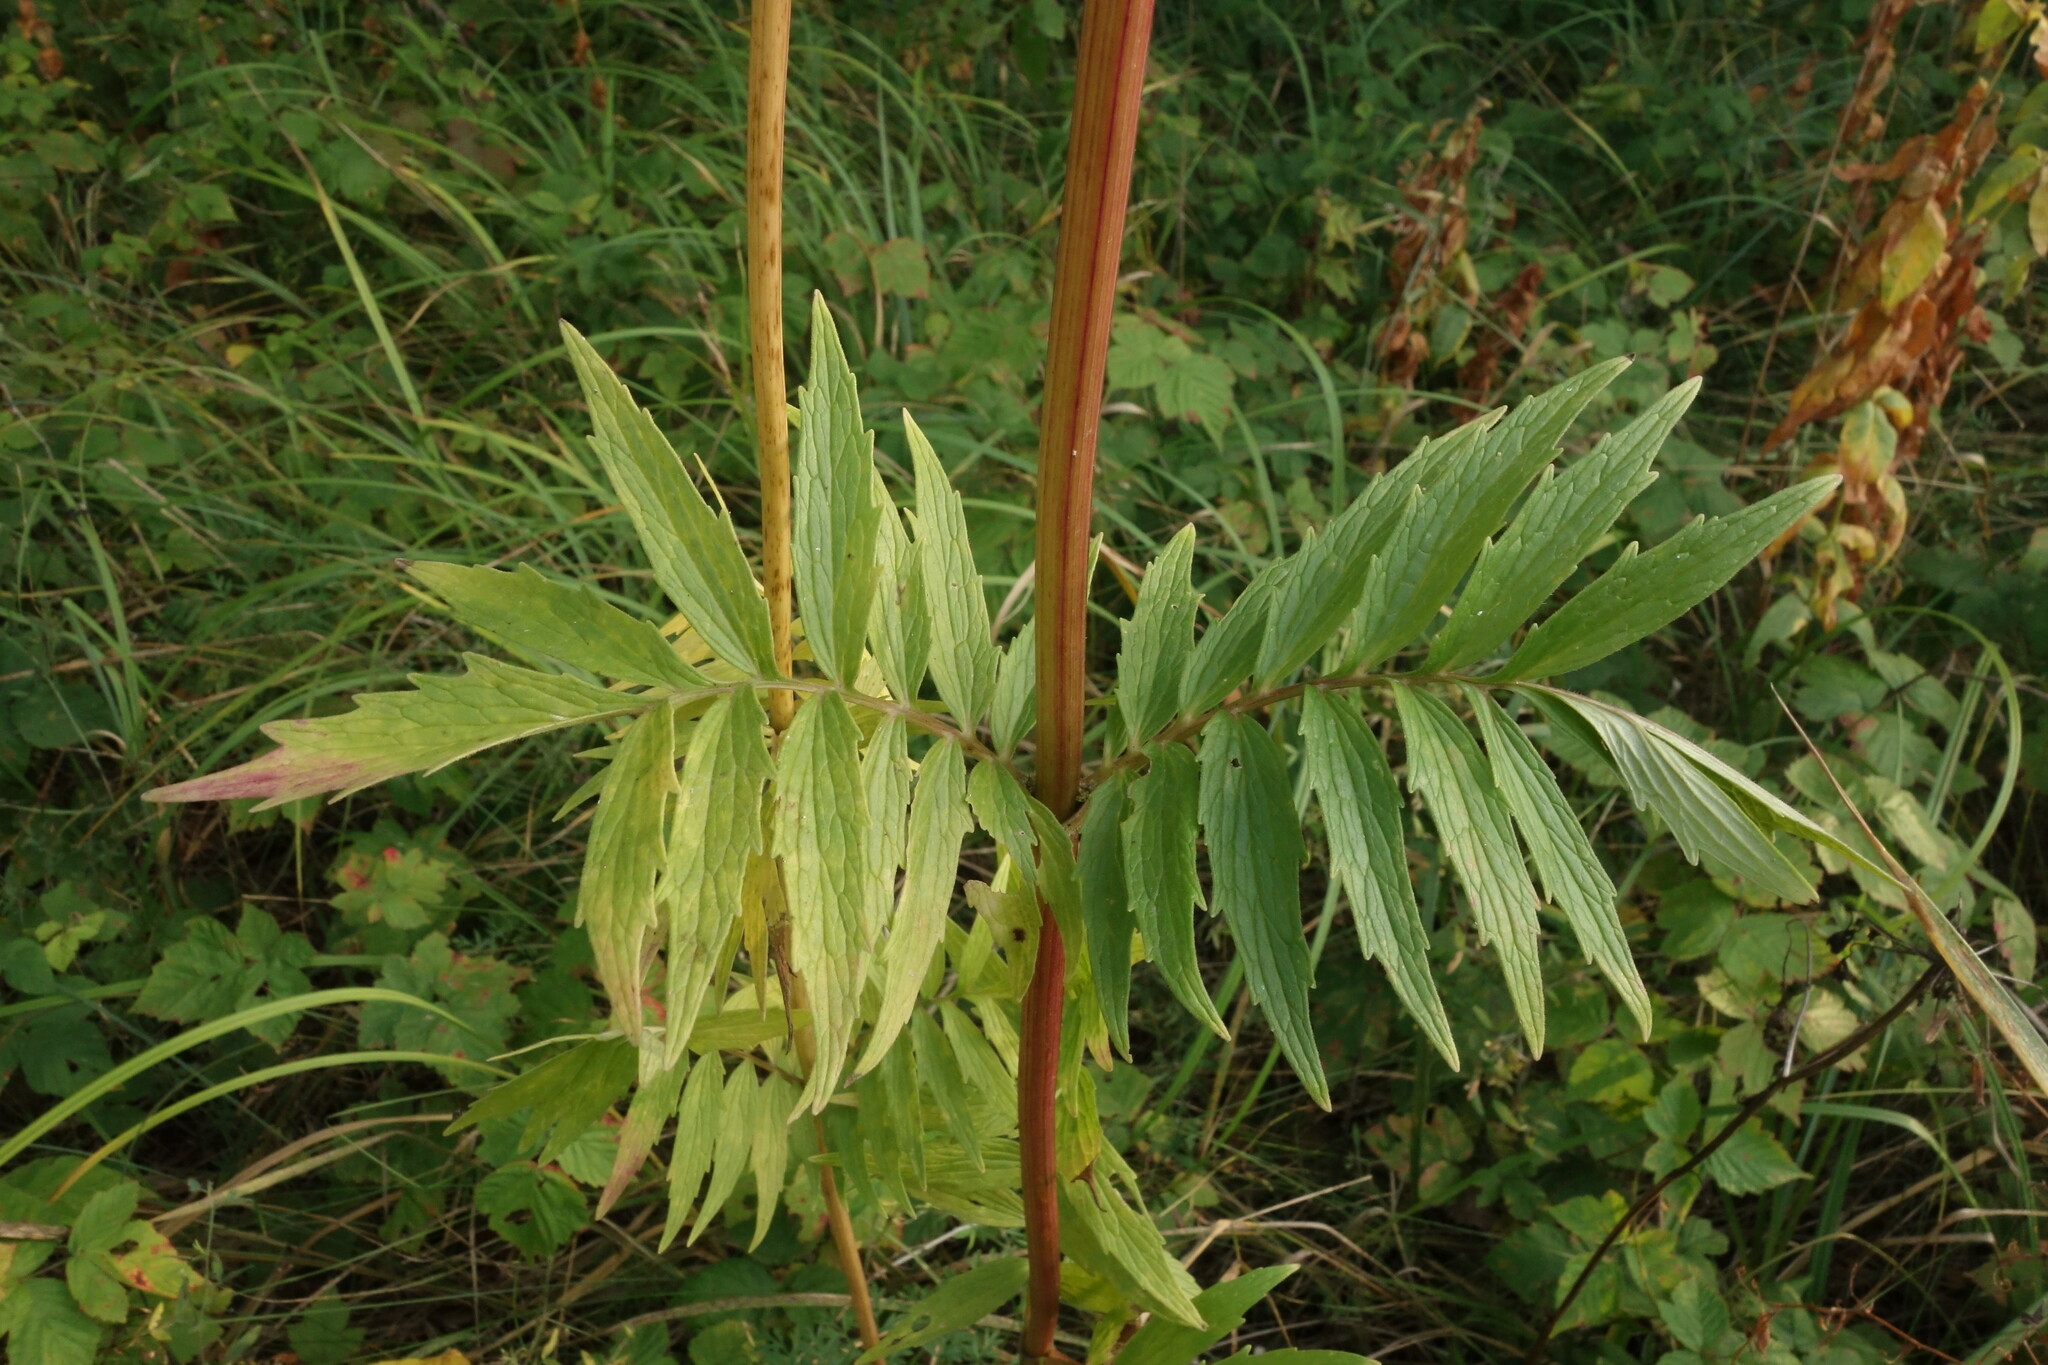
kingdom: Plantae
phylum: Tracheophyta
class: Magnoliopsida
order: Dipsacales
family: Caprifoliaceae
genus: Valeriana
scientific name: Valeriana officinalis
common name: Common valerian
